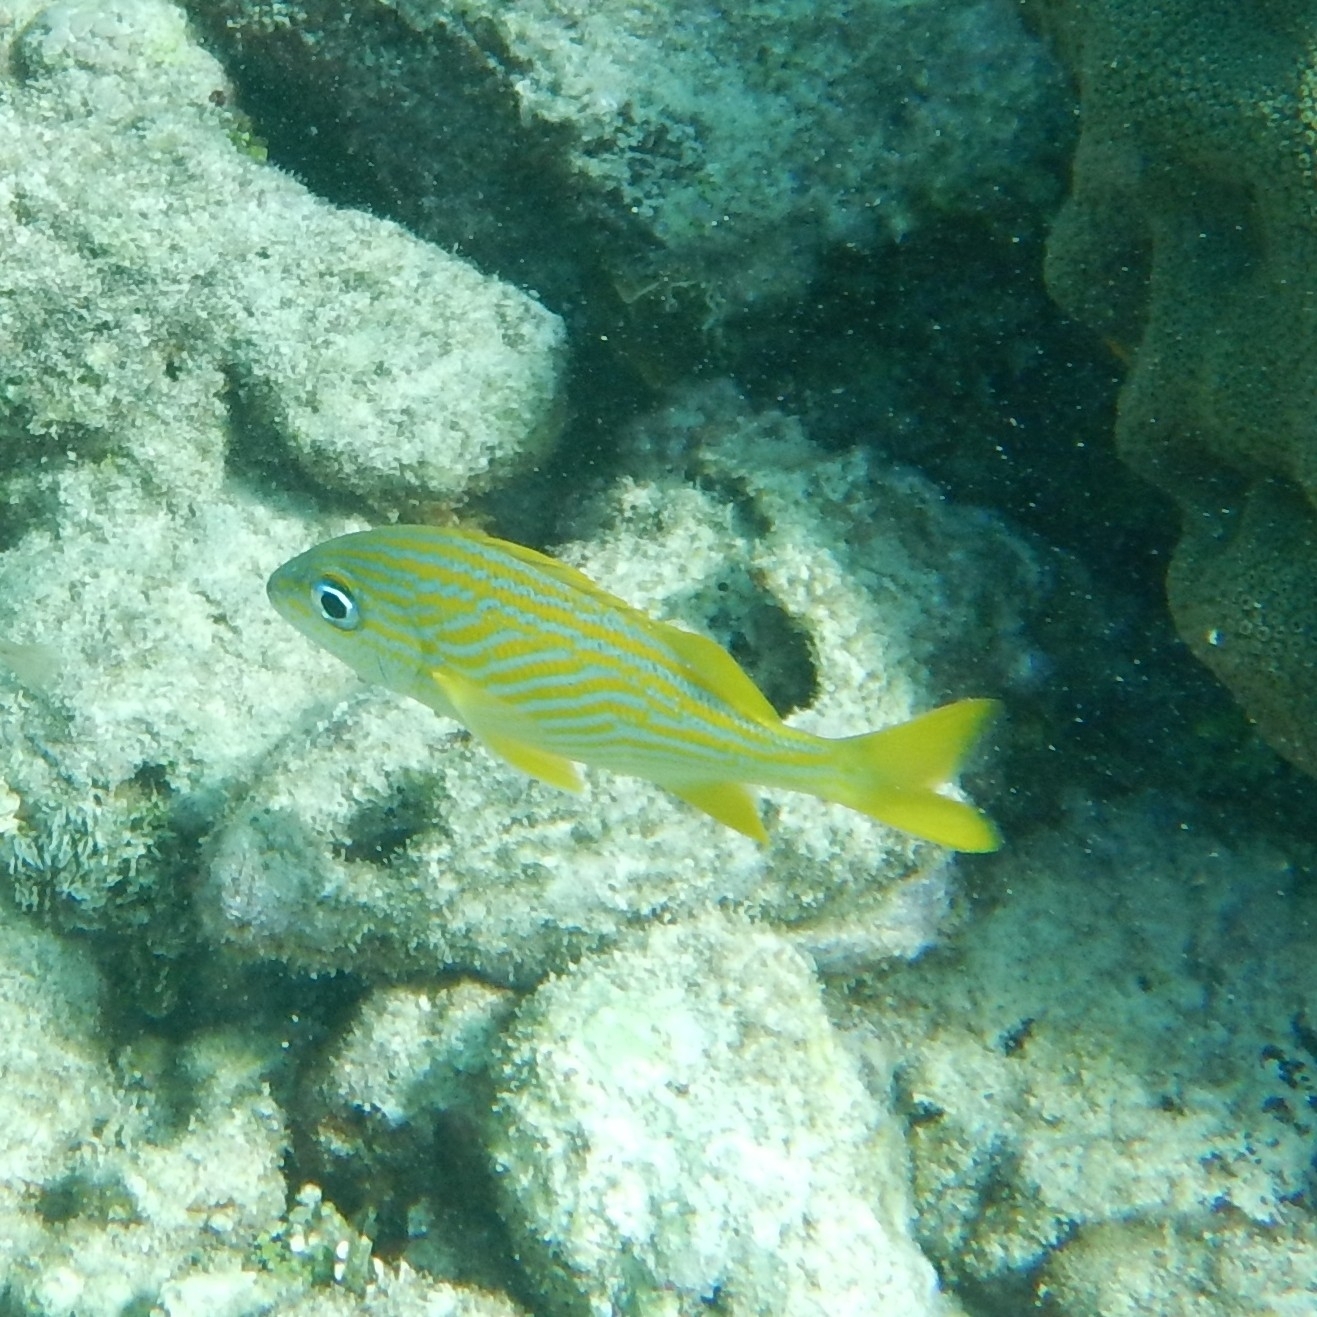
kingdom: Animalia
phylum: Chordata
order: Perciformes
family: Haemulidae
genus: Haemulon
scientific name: Haemulon flavolineatum
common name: French grunt
